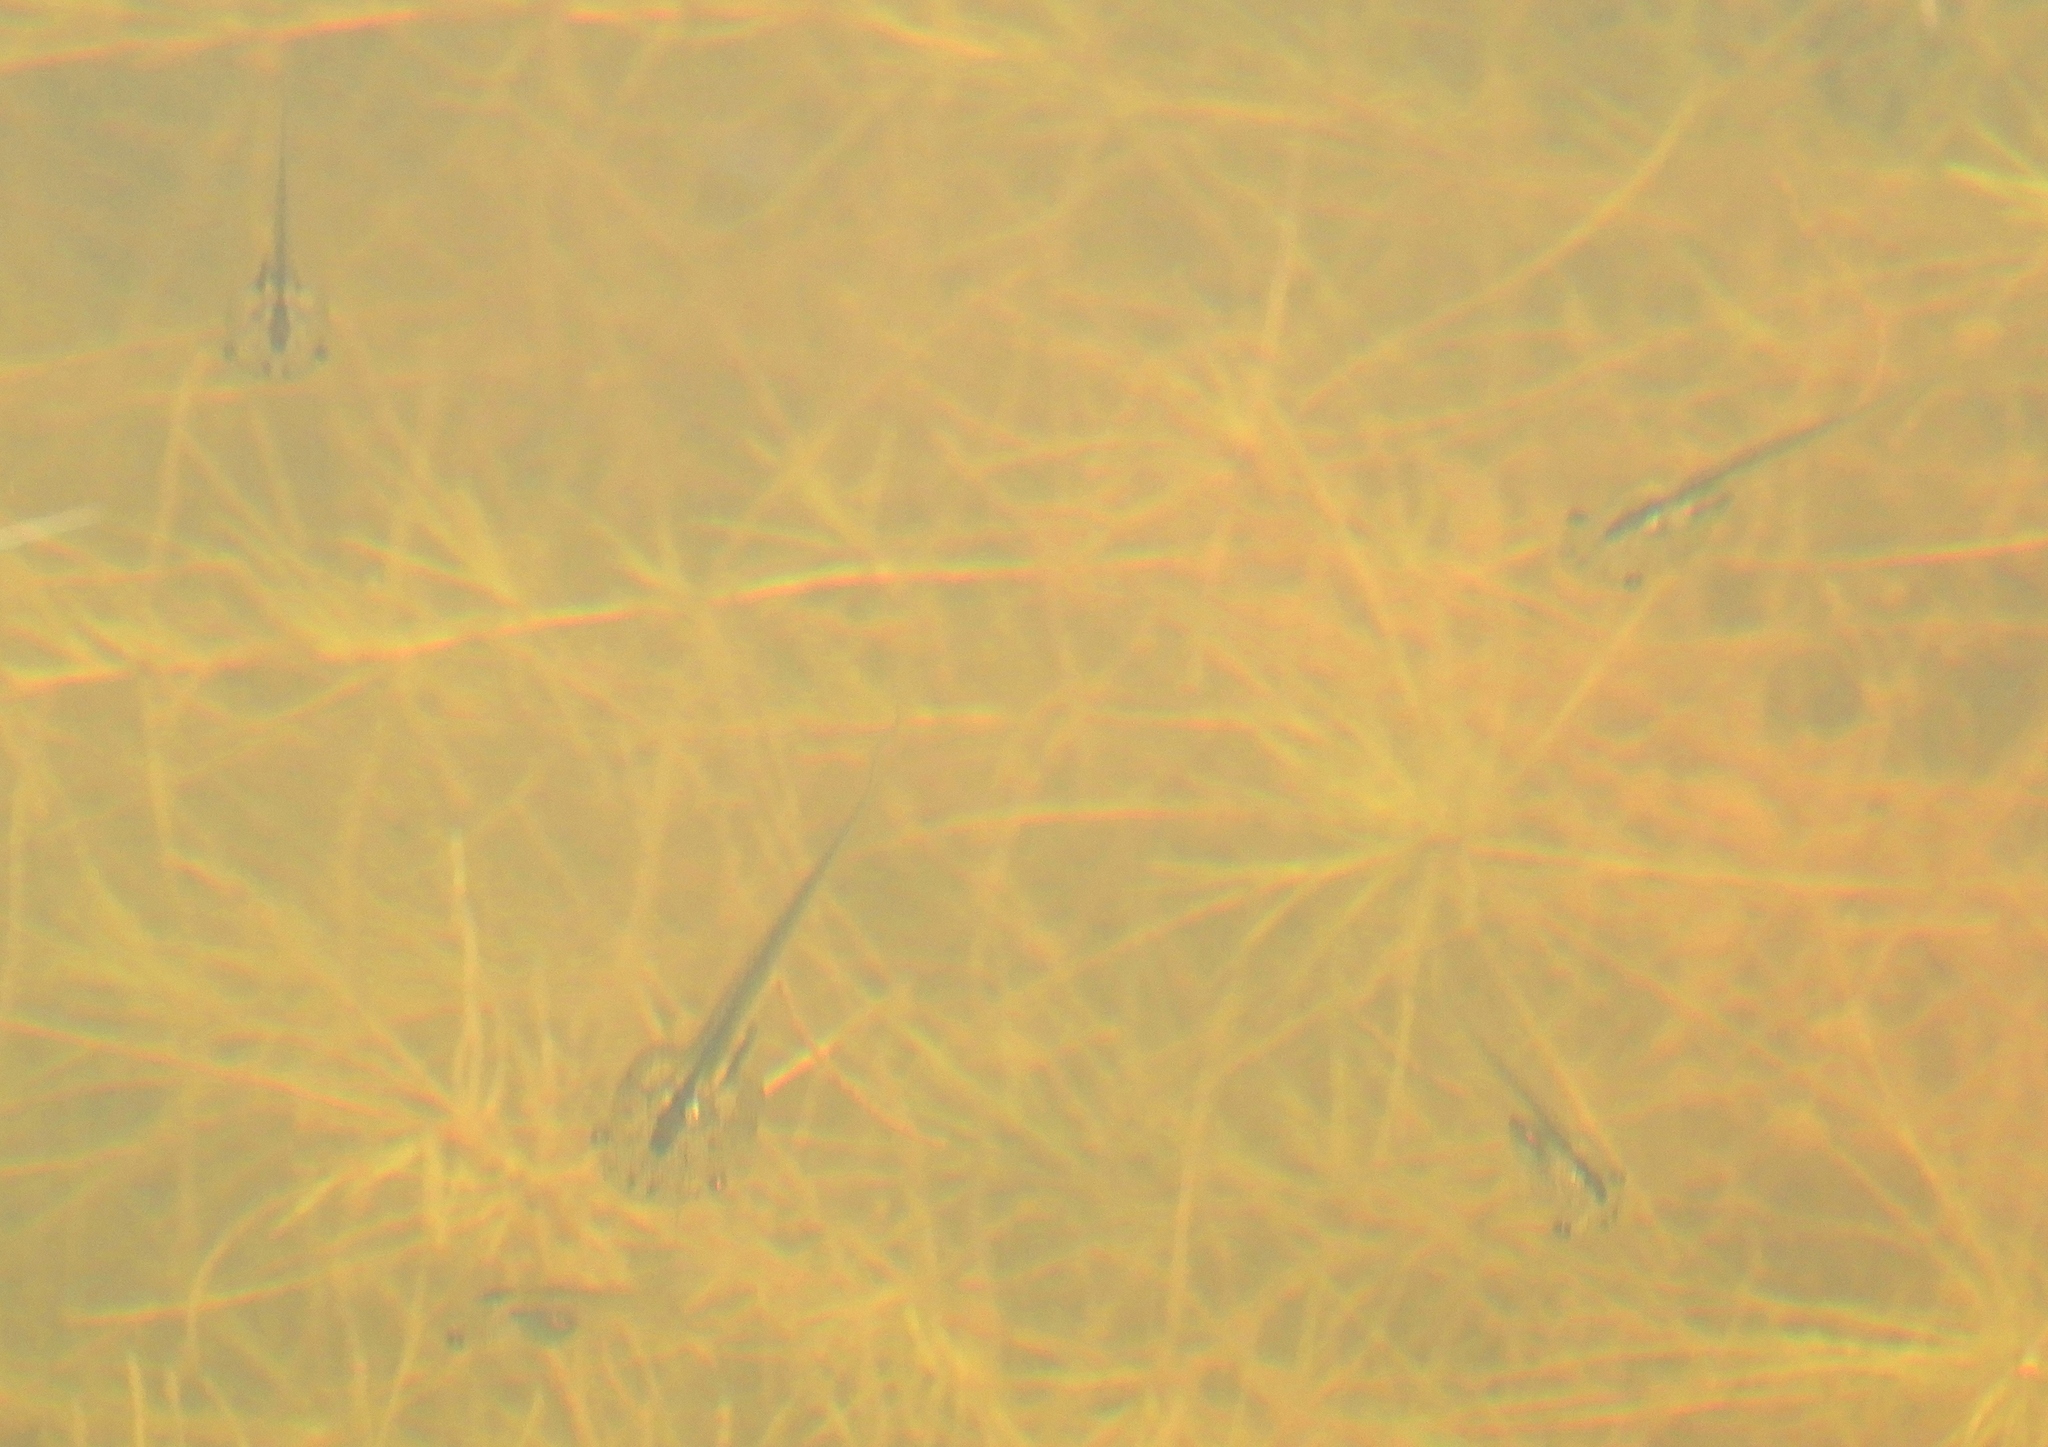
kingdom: Animalia
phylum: Chordata
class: Amphibia
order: Anura
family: Pipidae
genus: Xenopus
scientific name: Xenopus laevis
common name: African clawed frog
